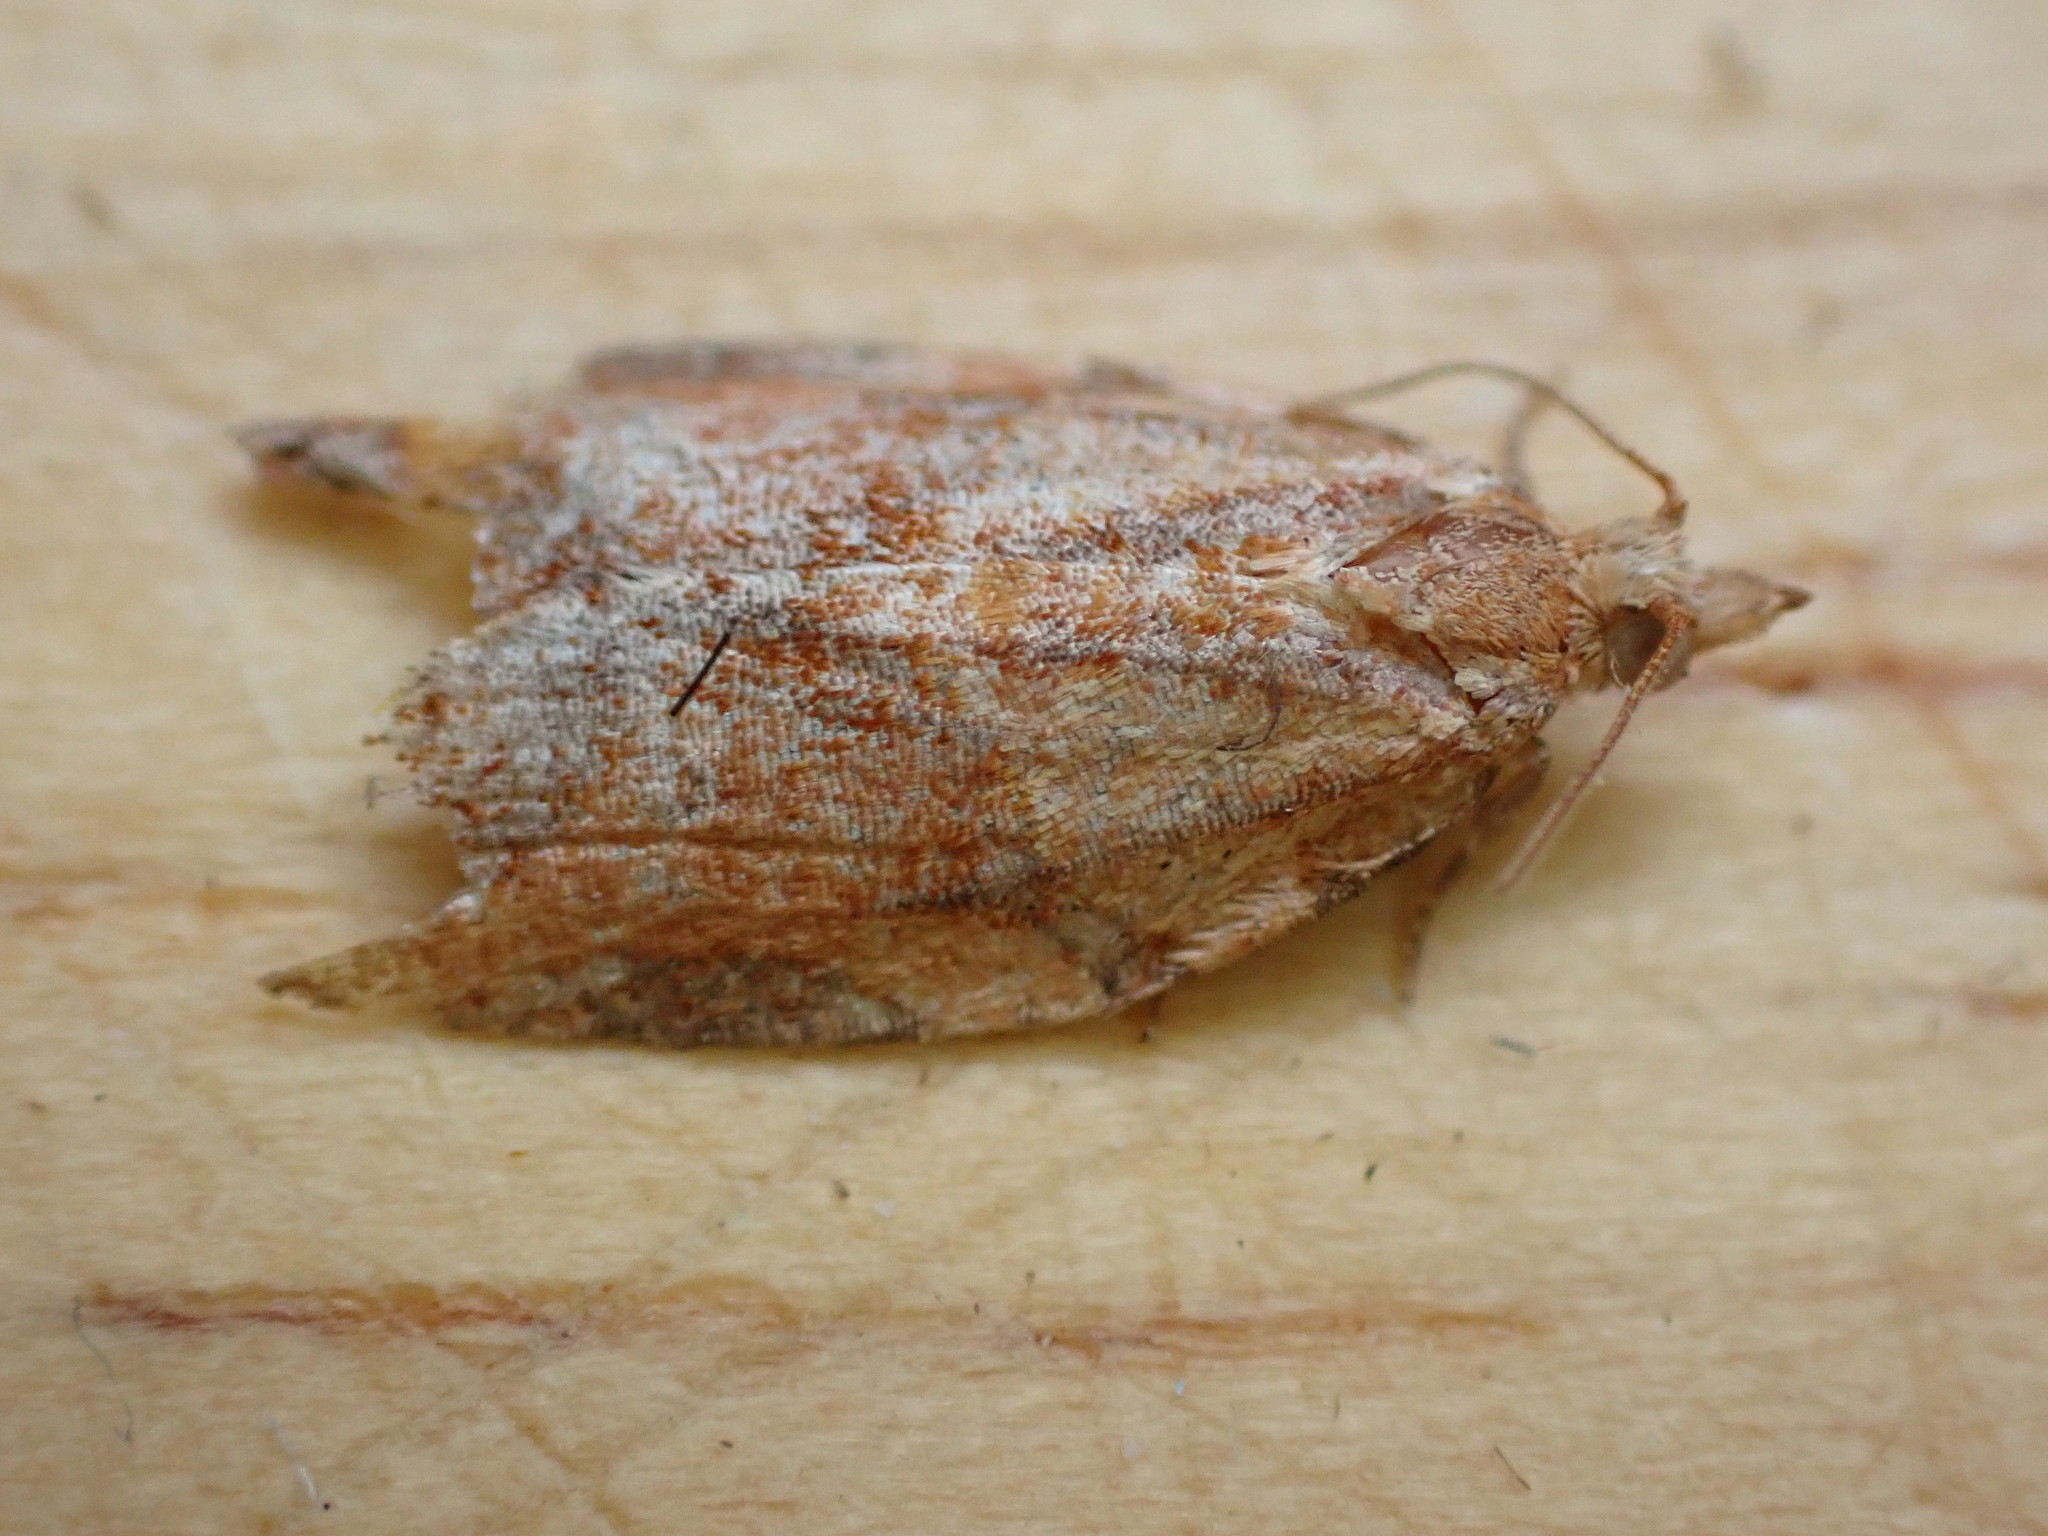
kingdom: Animalia
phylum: Arthropoda
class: Insecta
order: Lepidoptera
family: Tortricidae
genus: Pandemis
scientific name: Pandemis heparana
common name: Dark fruit-tree tortrix
